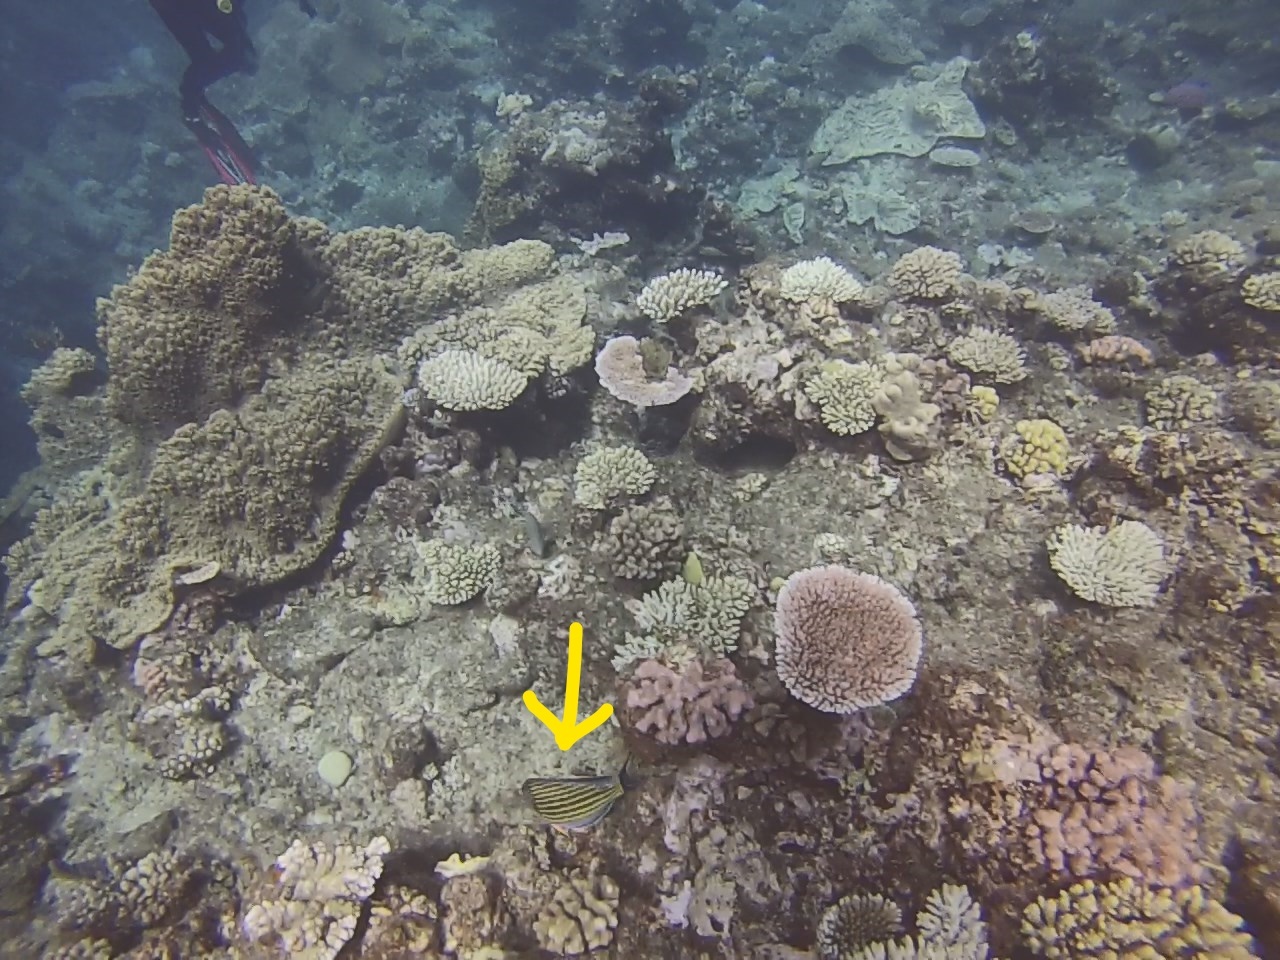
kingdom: Animalia
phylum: Chordata
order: Perciformes
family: Acanthuridae
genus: Acanthurus
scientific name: Acanthurus lineatus
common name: Striped surgeonfish
